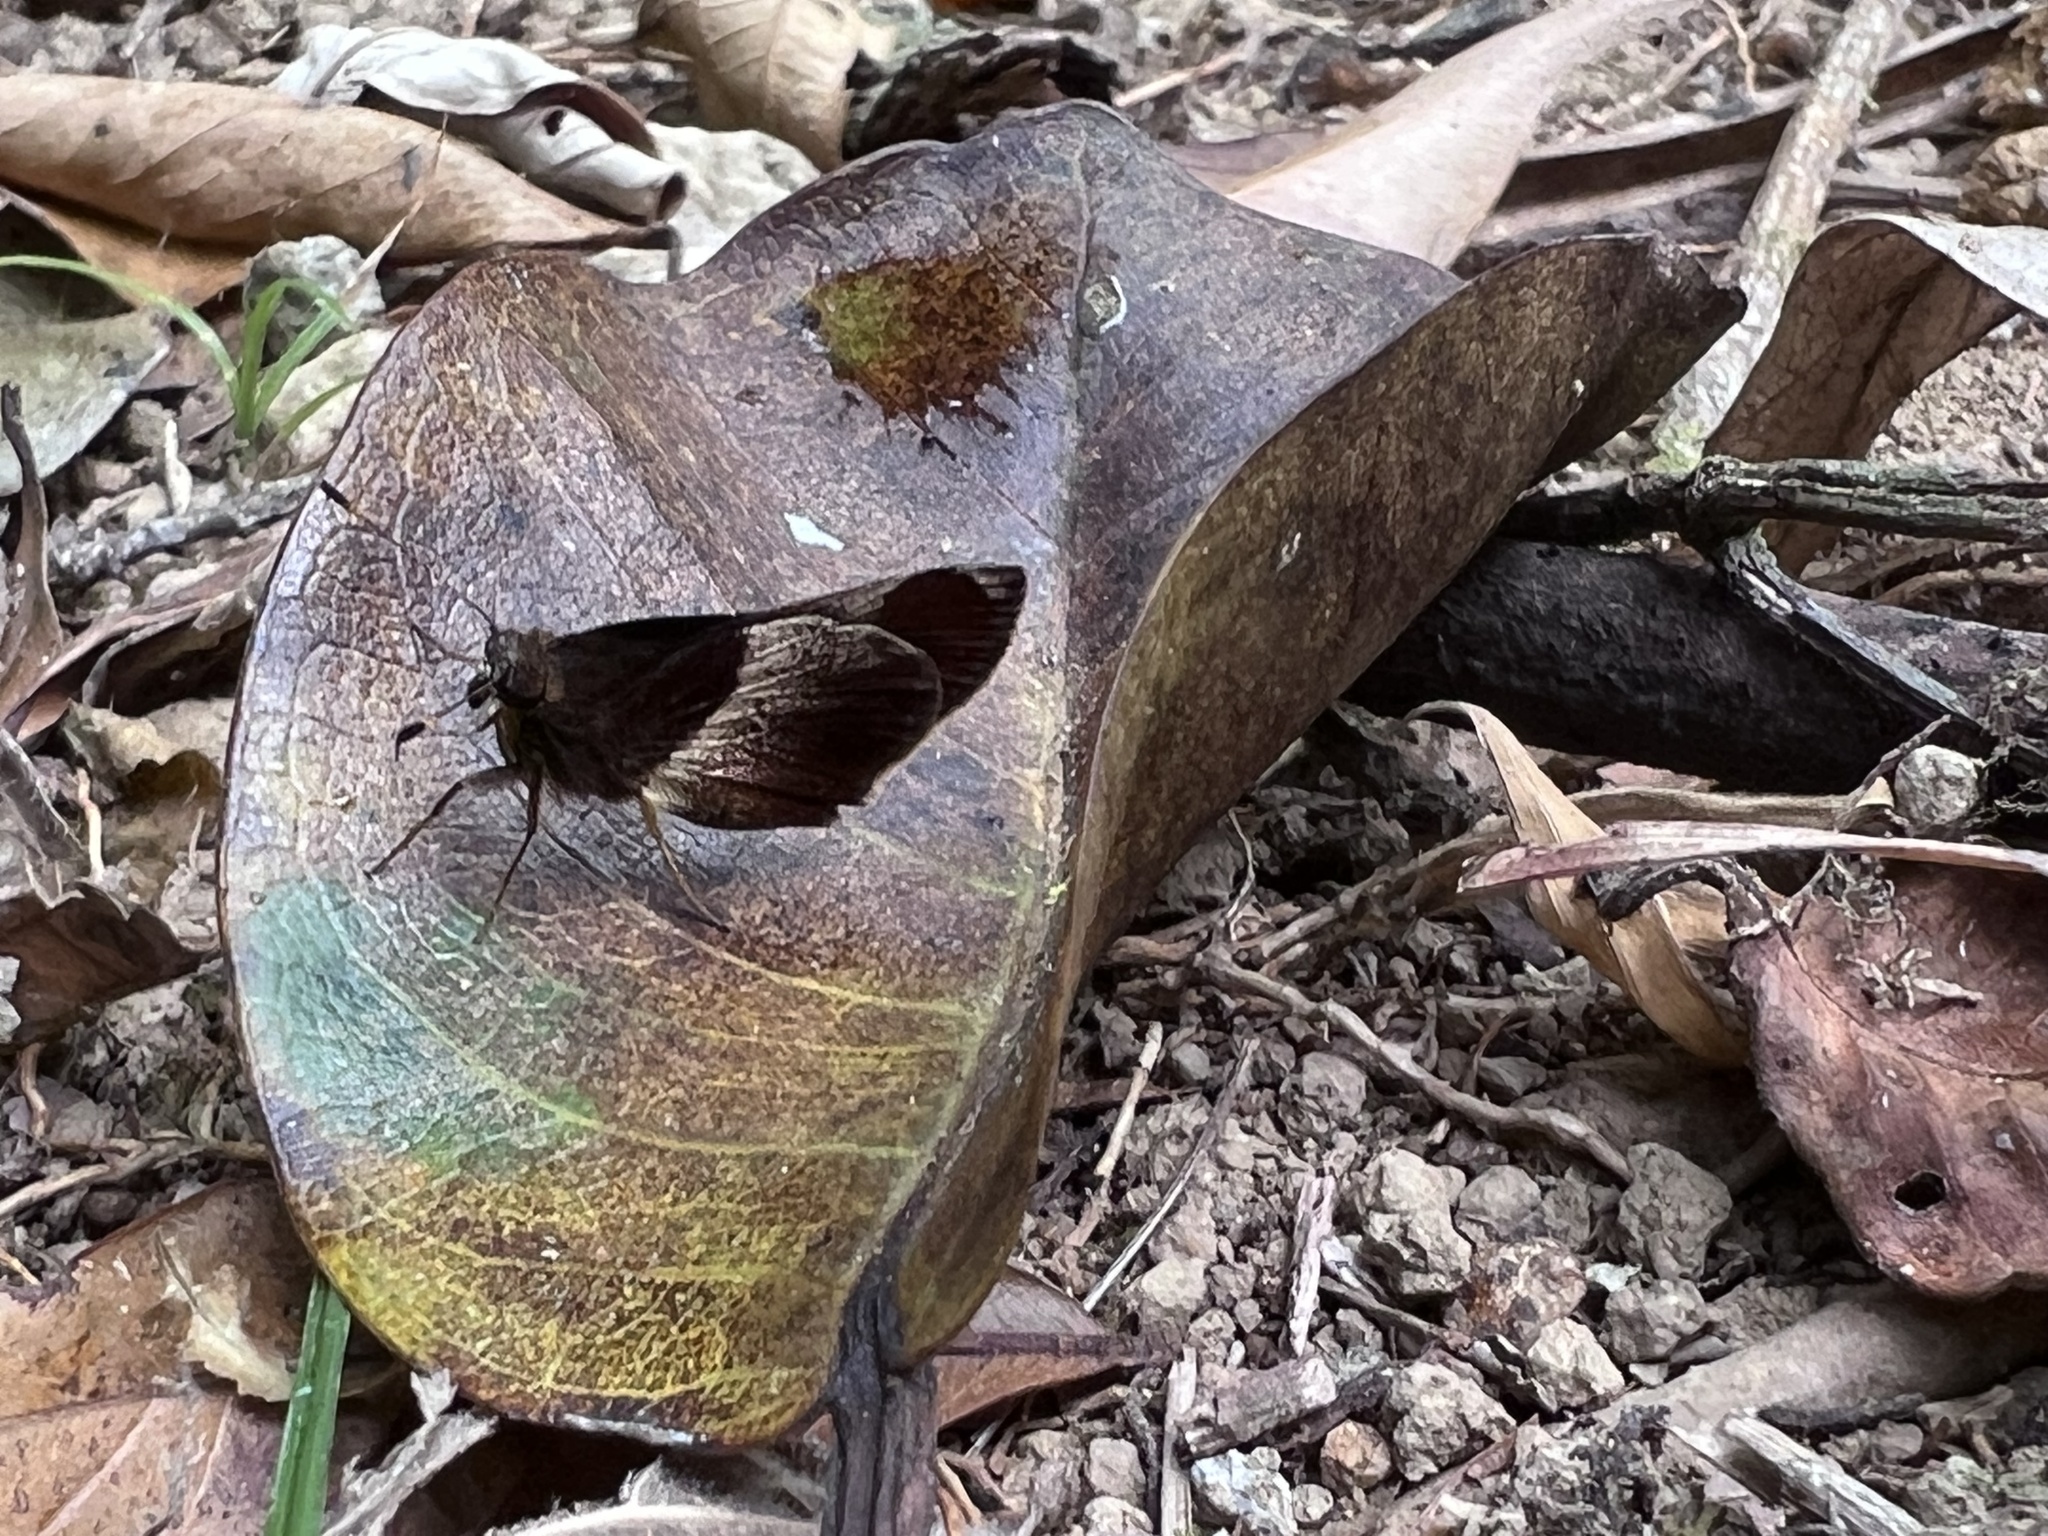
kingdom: Animalia
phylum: Arthropoda
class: Insecta
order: Lepidoptera
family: Hesperiidae
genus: Moeris
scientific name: Moeris Remella rita
